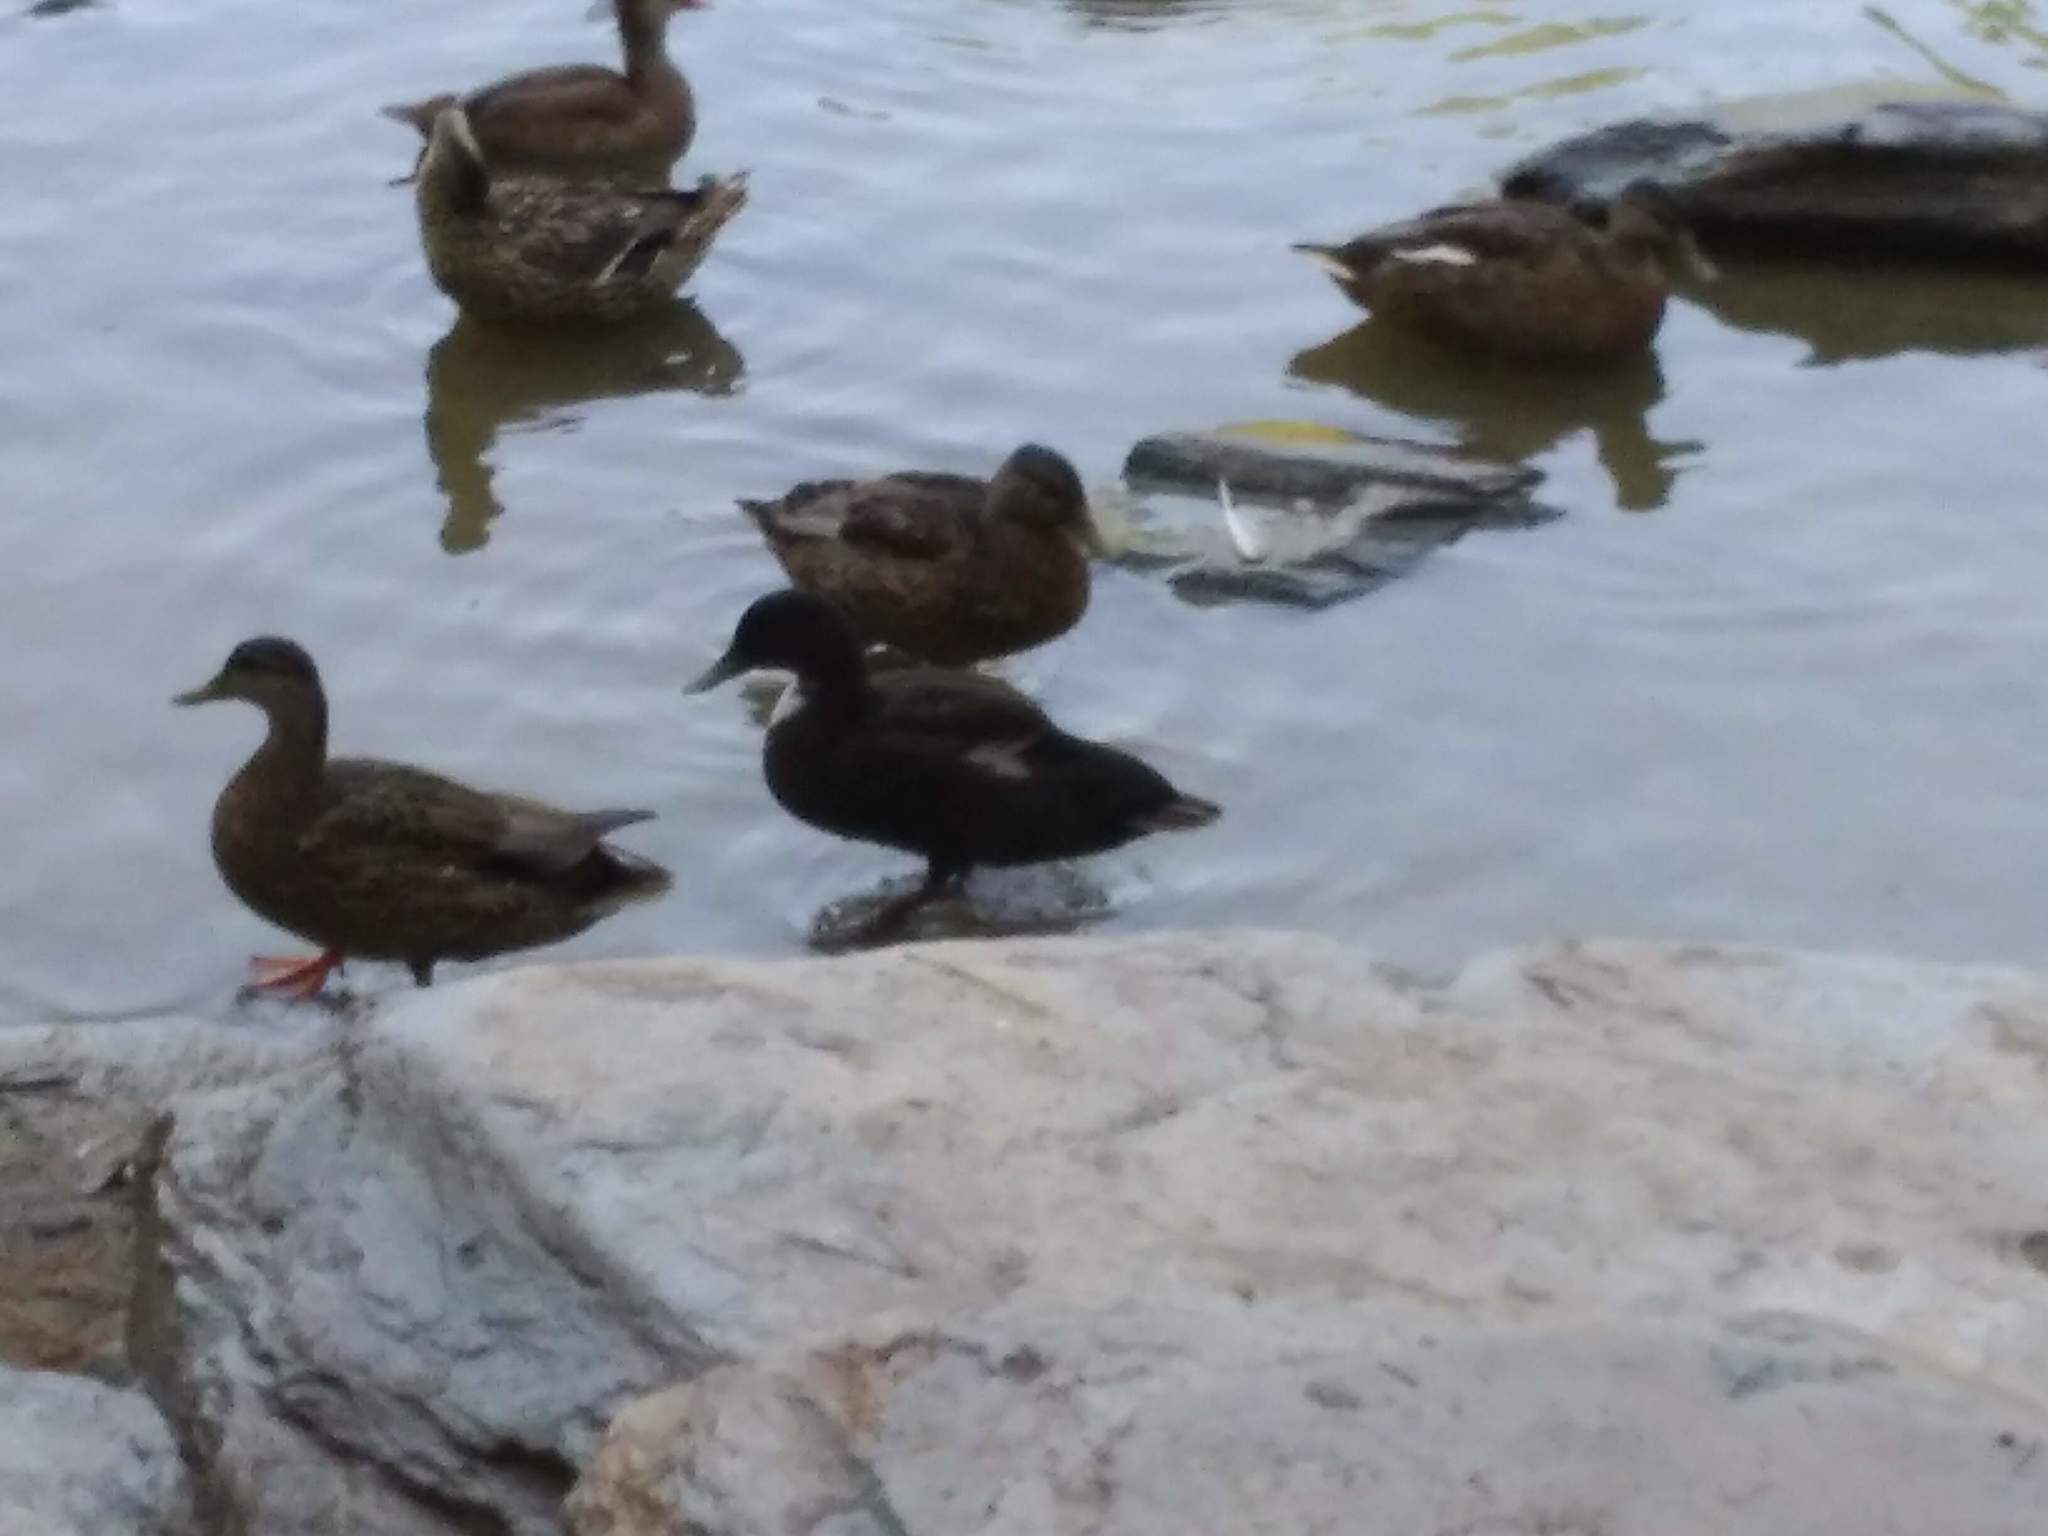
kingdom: Animalia
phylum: Chordata
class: Aves
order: Anseriformes
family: Anatidae
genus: Anas
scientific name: Anas platyrhynchos
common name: Mallard
